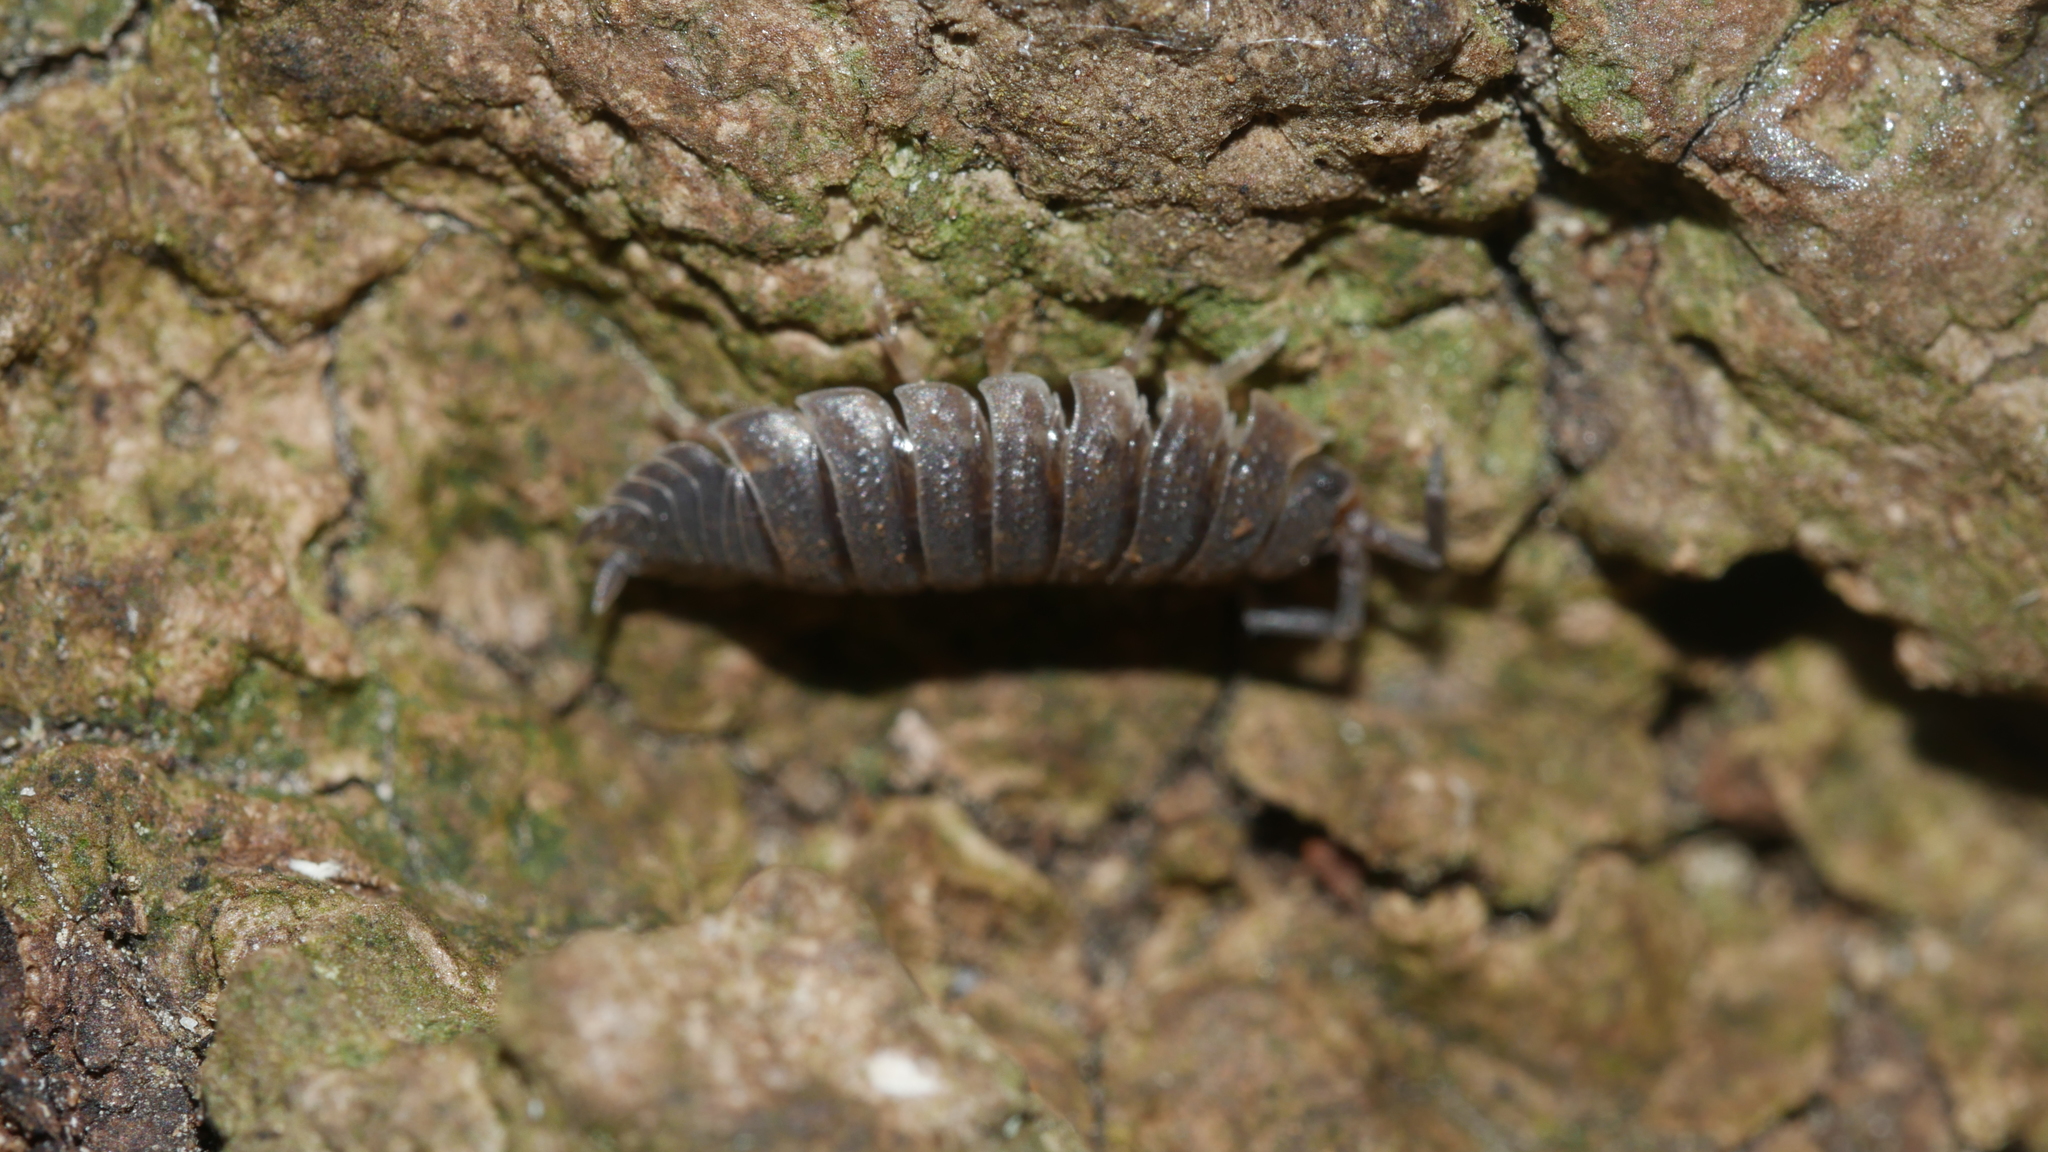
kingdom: Animalia
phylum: Arthropoda
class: Malacostraca
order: Isopoda
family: Porcellionidae
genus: Porcellio
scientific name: Porcellio scaber
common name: Common rough woodlouse
